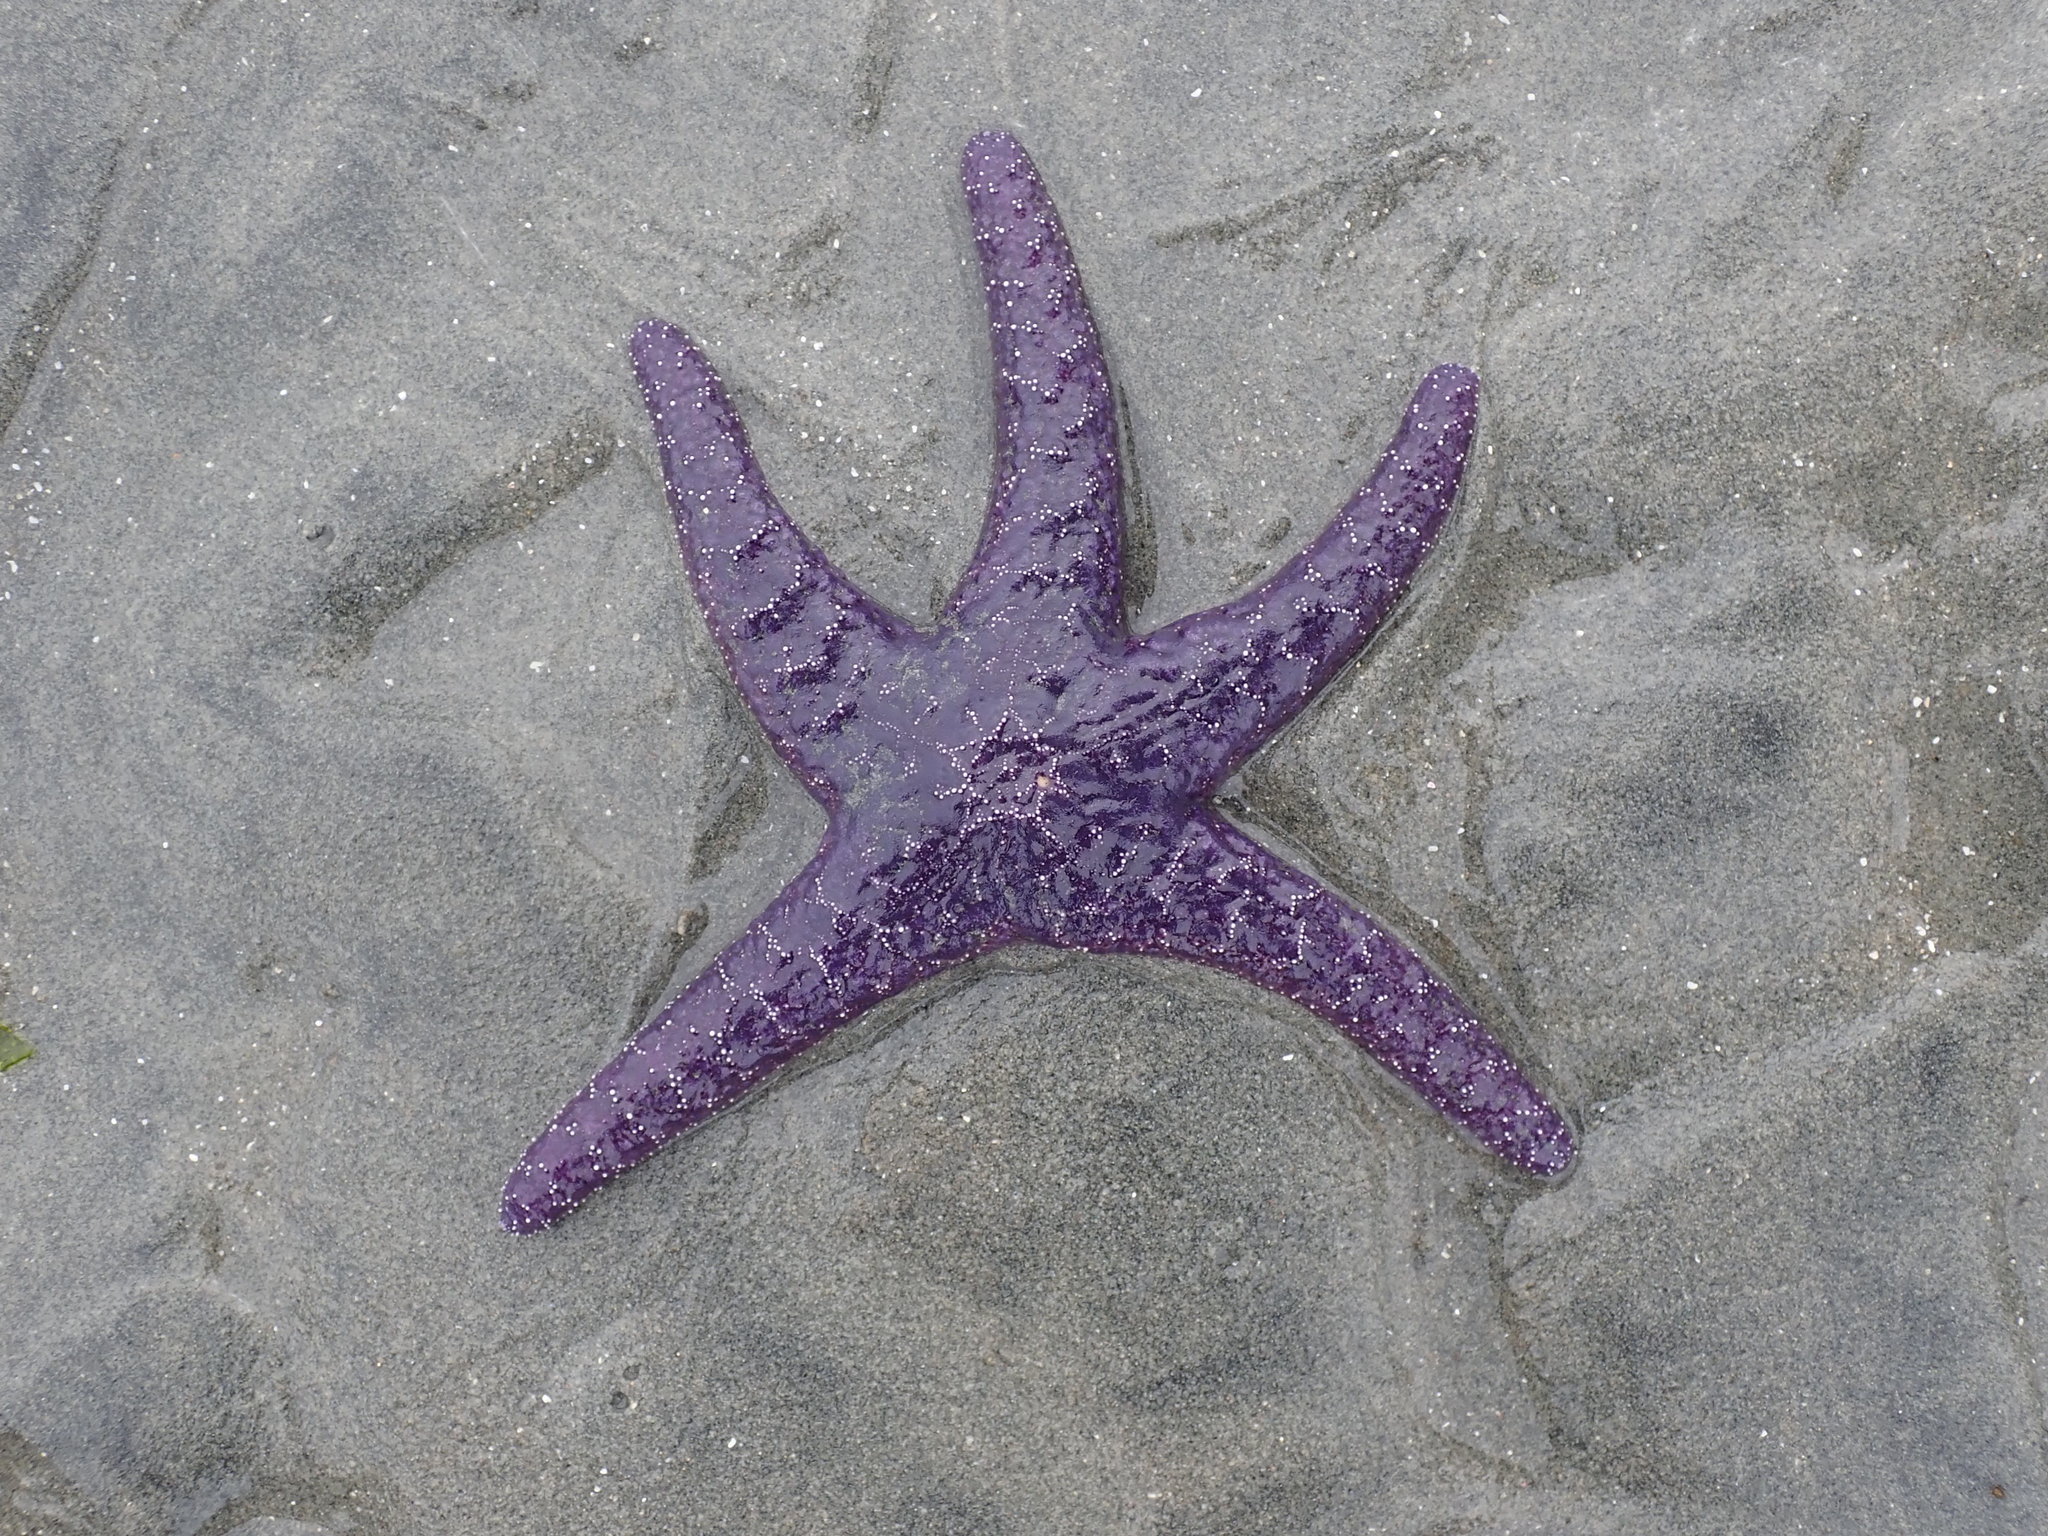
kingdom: Animalia
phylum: Echinodermata
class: Asteroidea
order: Forcipulatida
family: Asteriidae
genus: Pisaster
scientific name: Pisaster ochraceus
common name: Ochre stars
